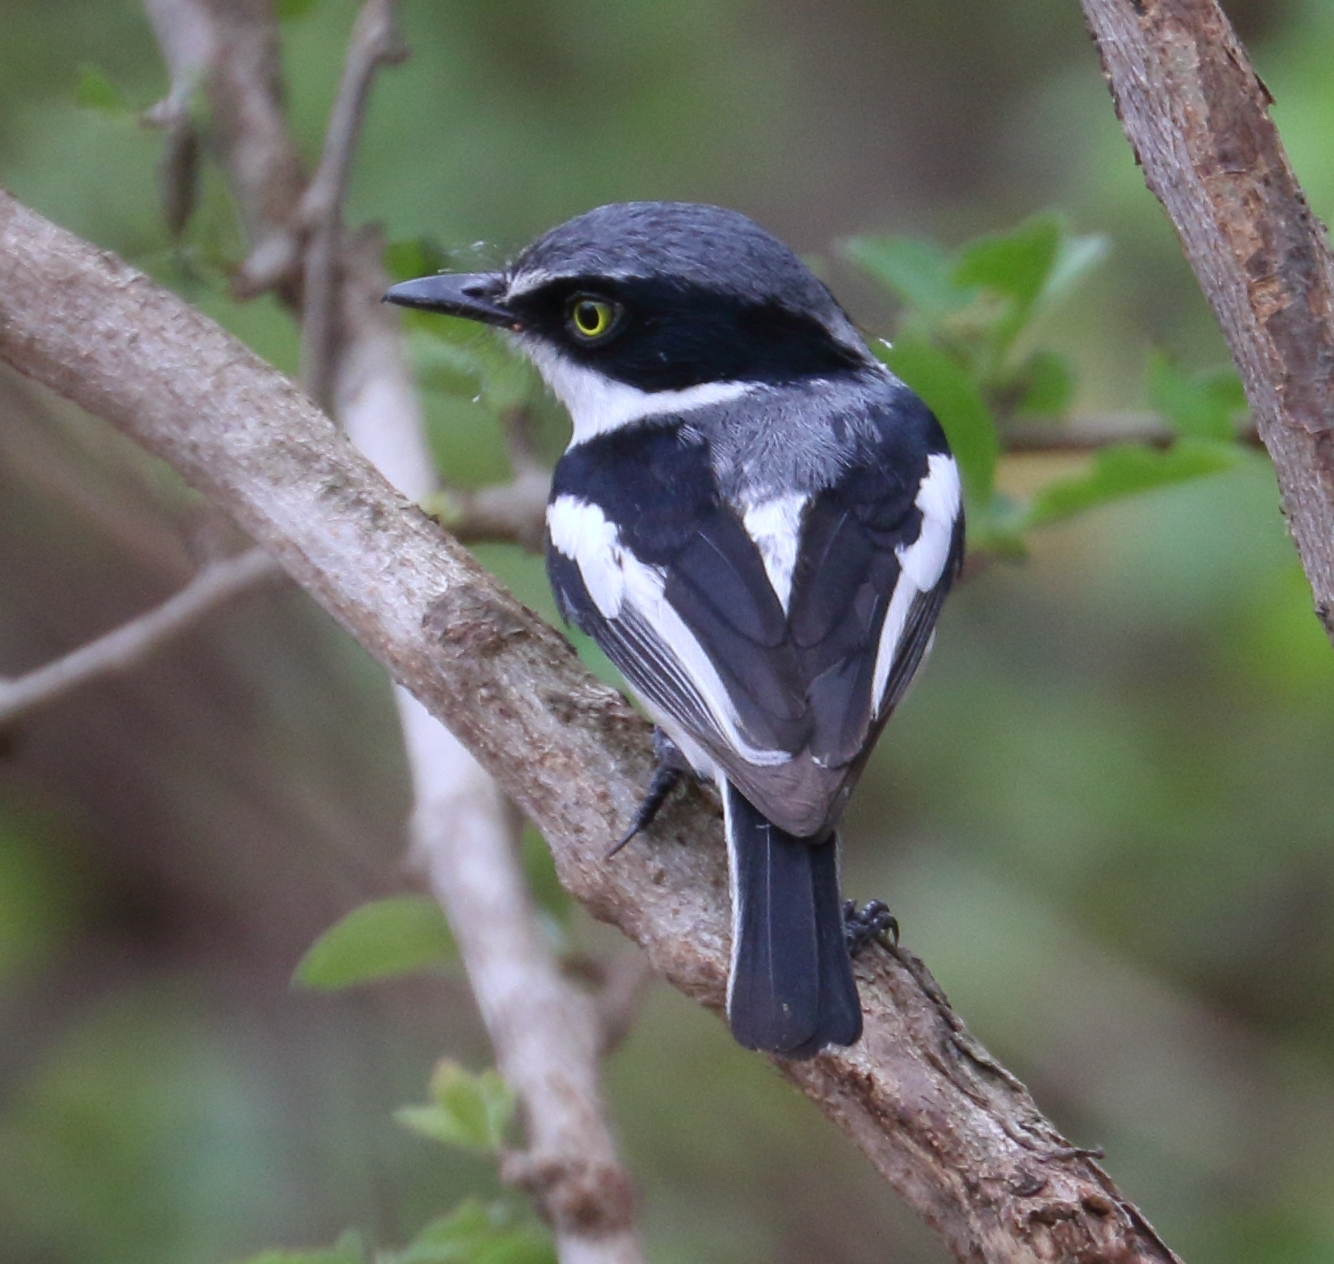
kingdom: Animalia
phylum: Chordata
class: Aves
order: Passeriformes
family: Platysteiridae
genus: Batis
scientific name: Batis molitor
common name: Chinspot batis
